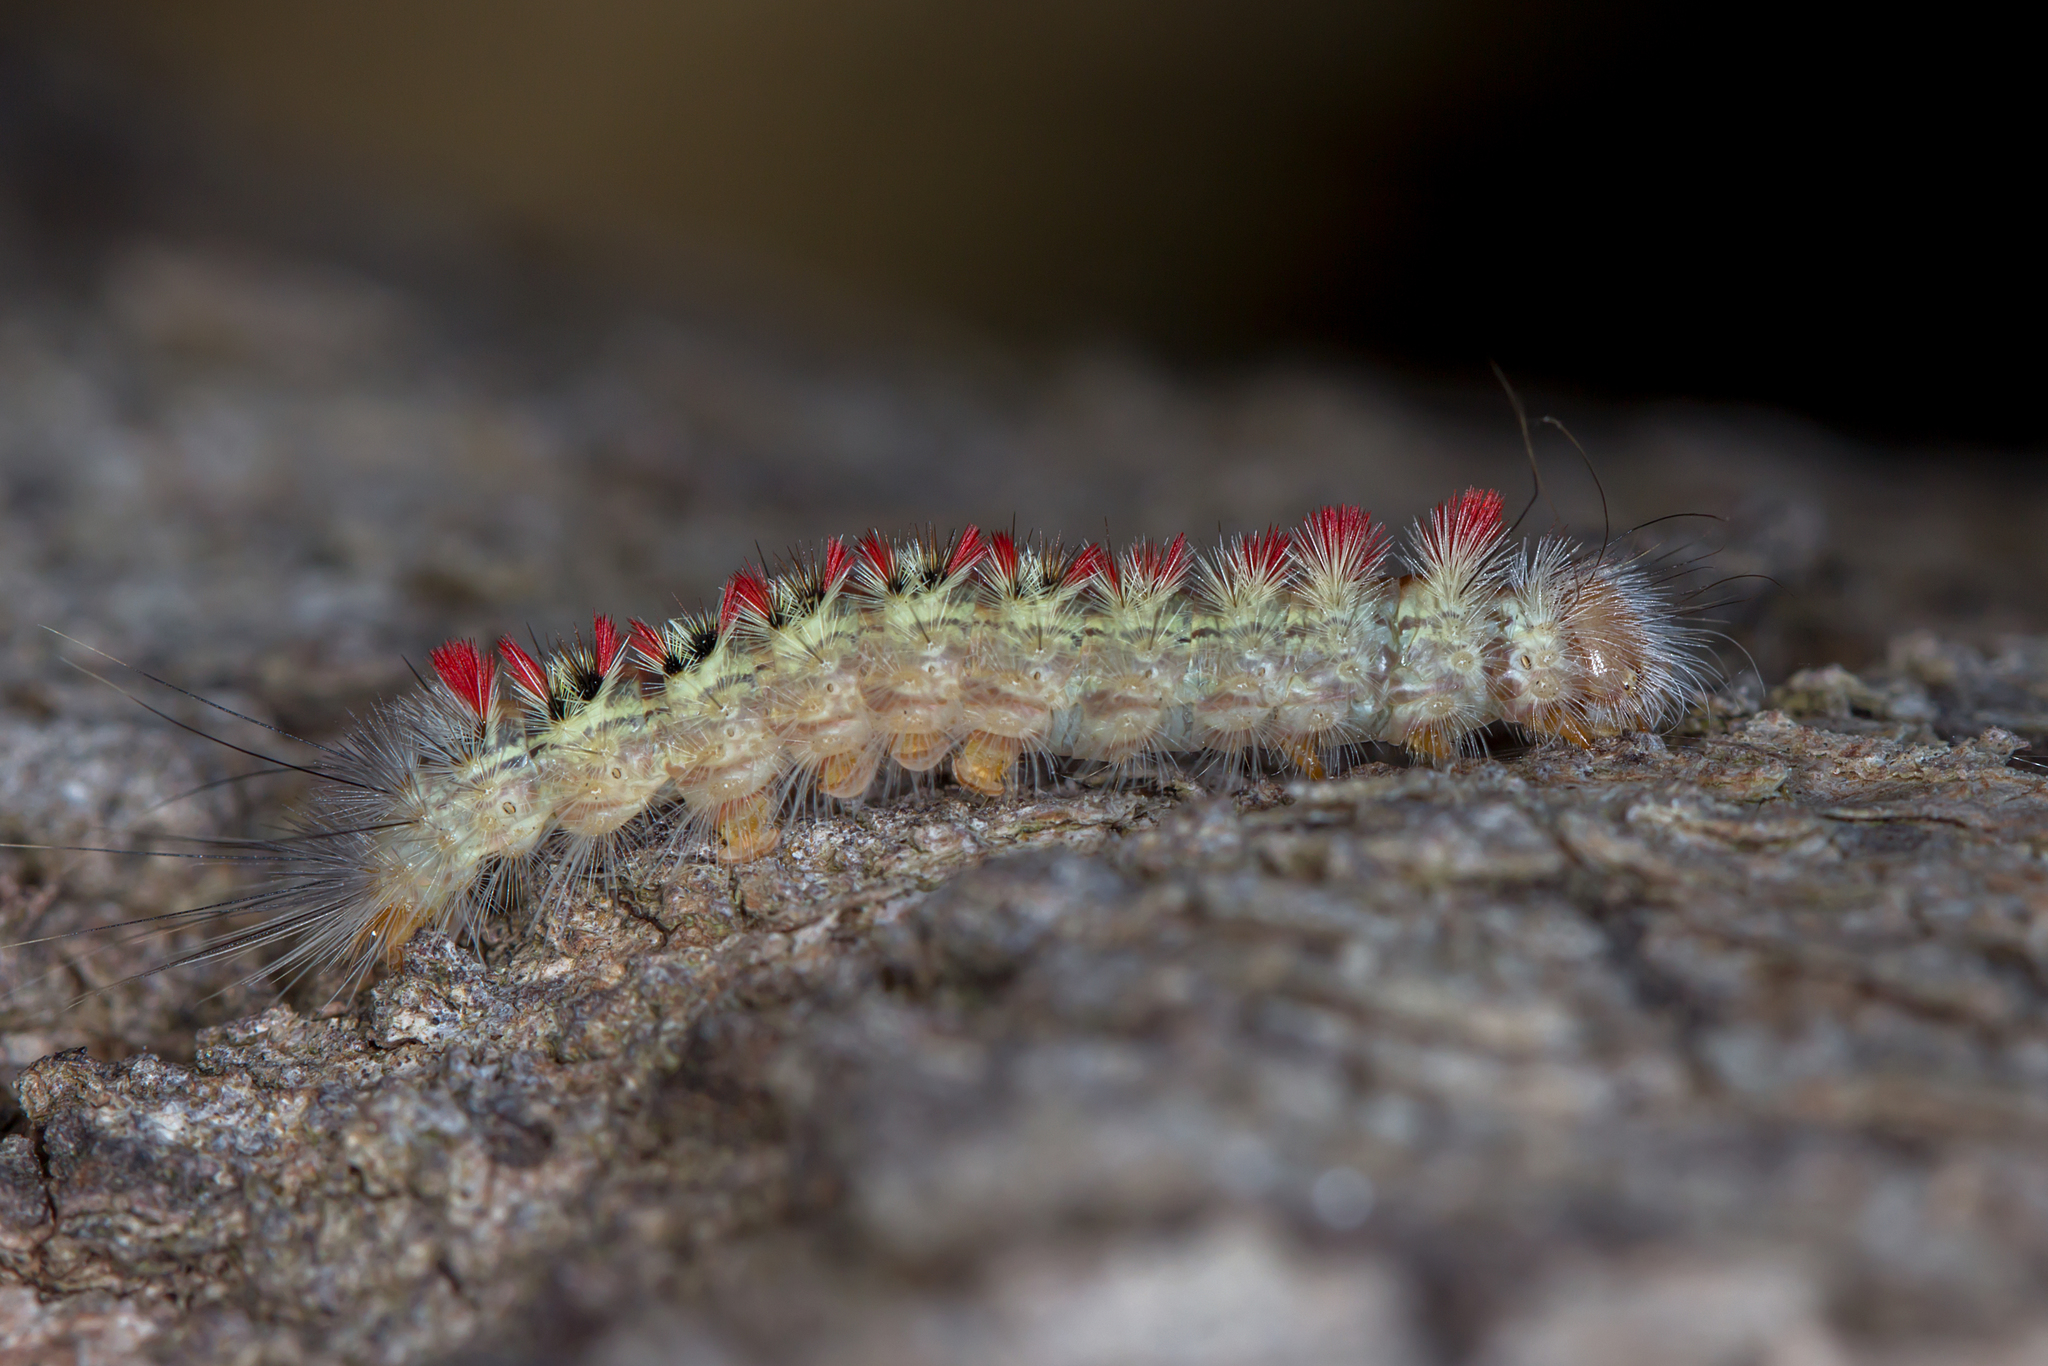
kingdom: Animalia
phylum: Arthropoda
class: Insecta
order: Lepidoptera
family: Notodontidae
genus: Trichiocercus
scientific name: Trichiocercus sparshalli
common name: Long-tailed satin
